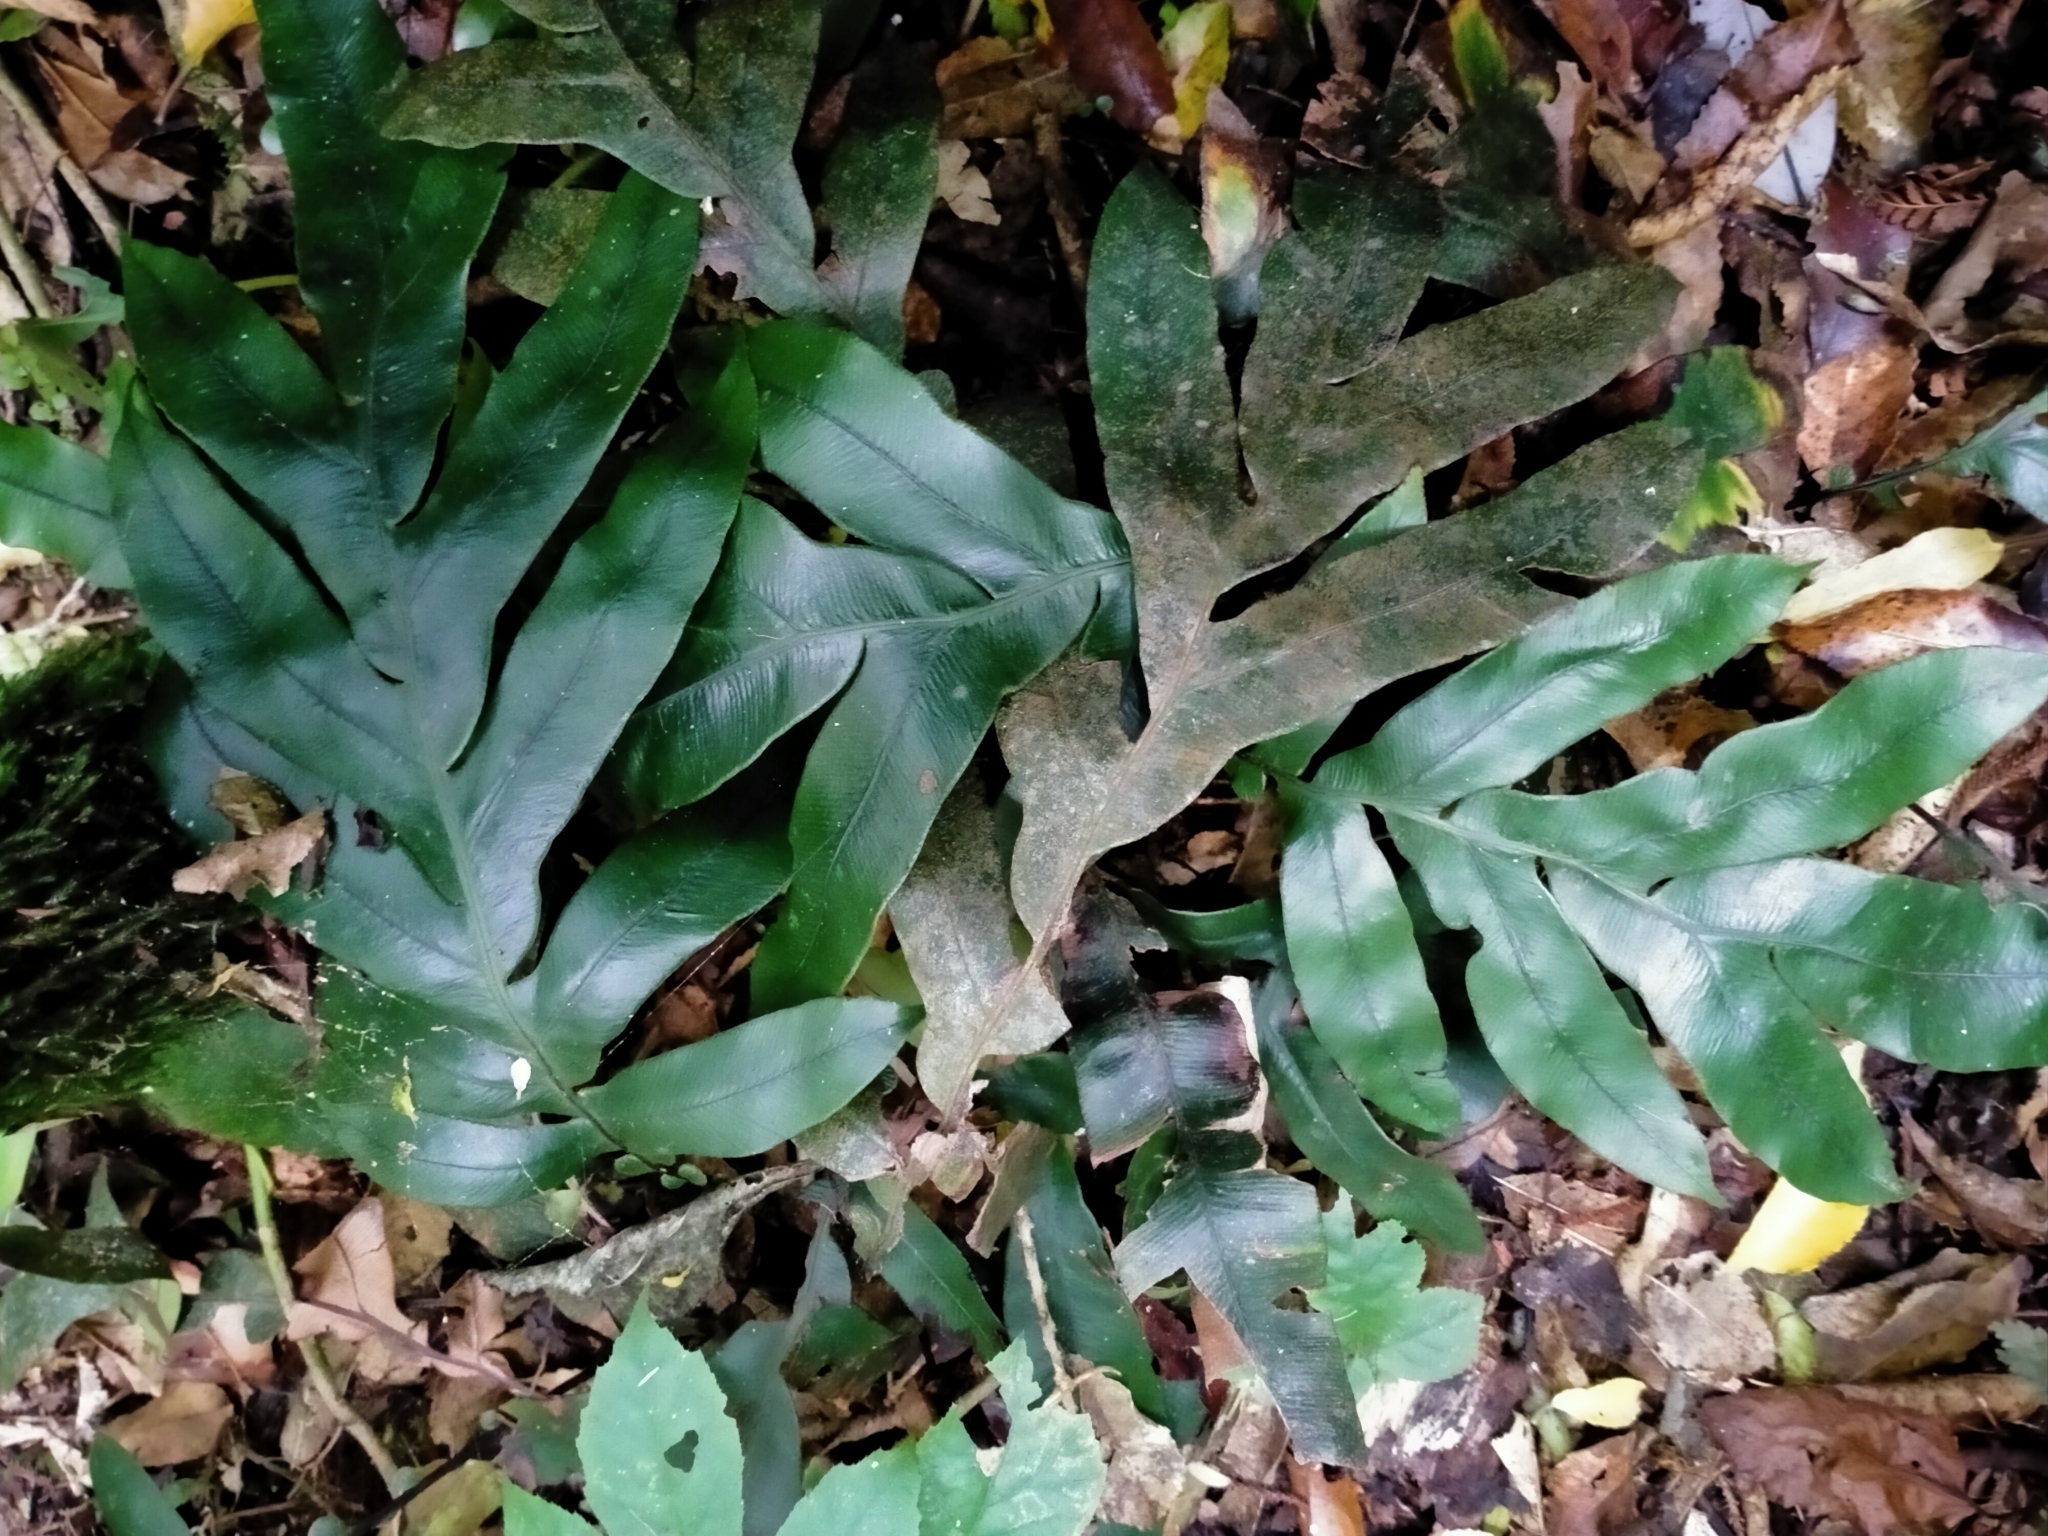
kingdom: Plantae
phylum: Tracheophyta
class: Polypodiopsida
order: Polypodiales
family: Blechnaceae
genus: Austroblechnum
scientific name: Austroblechnum colensoi
